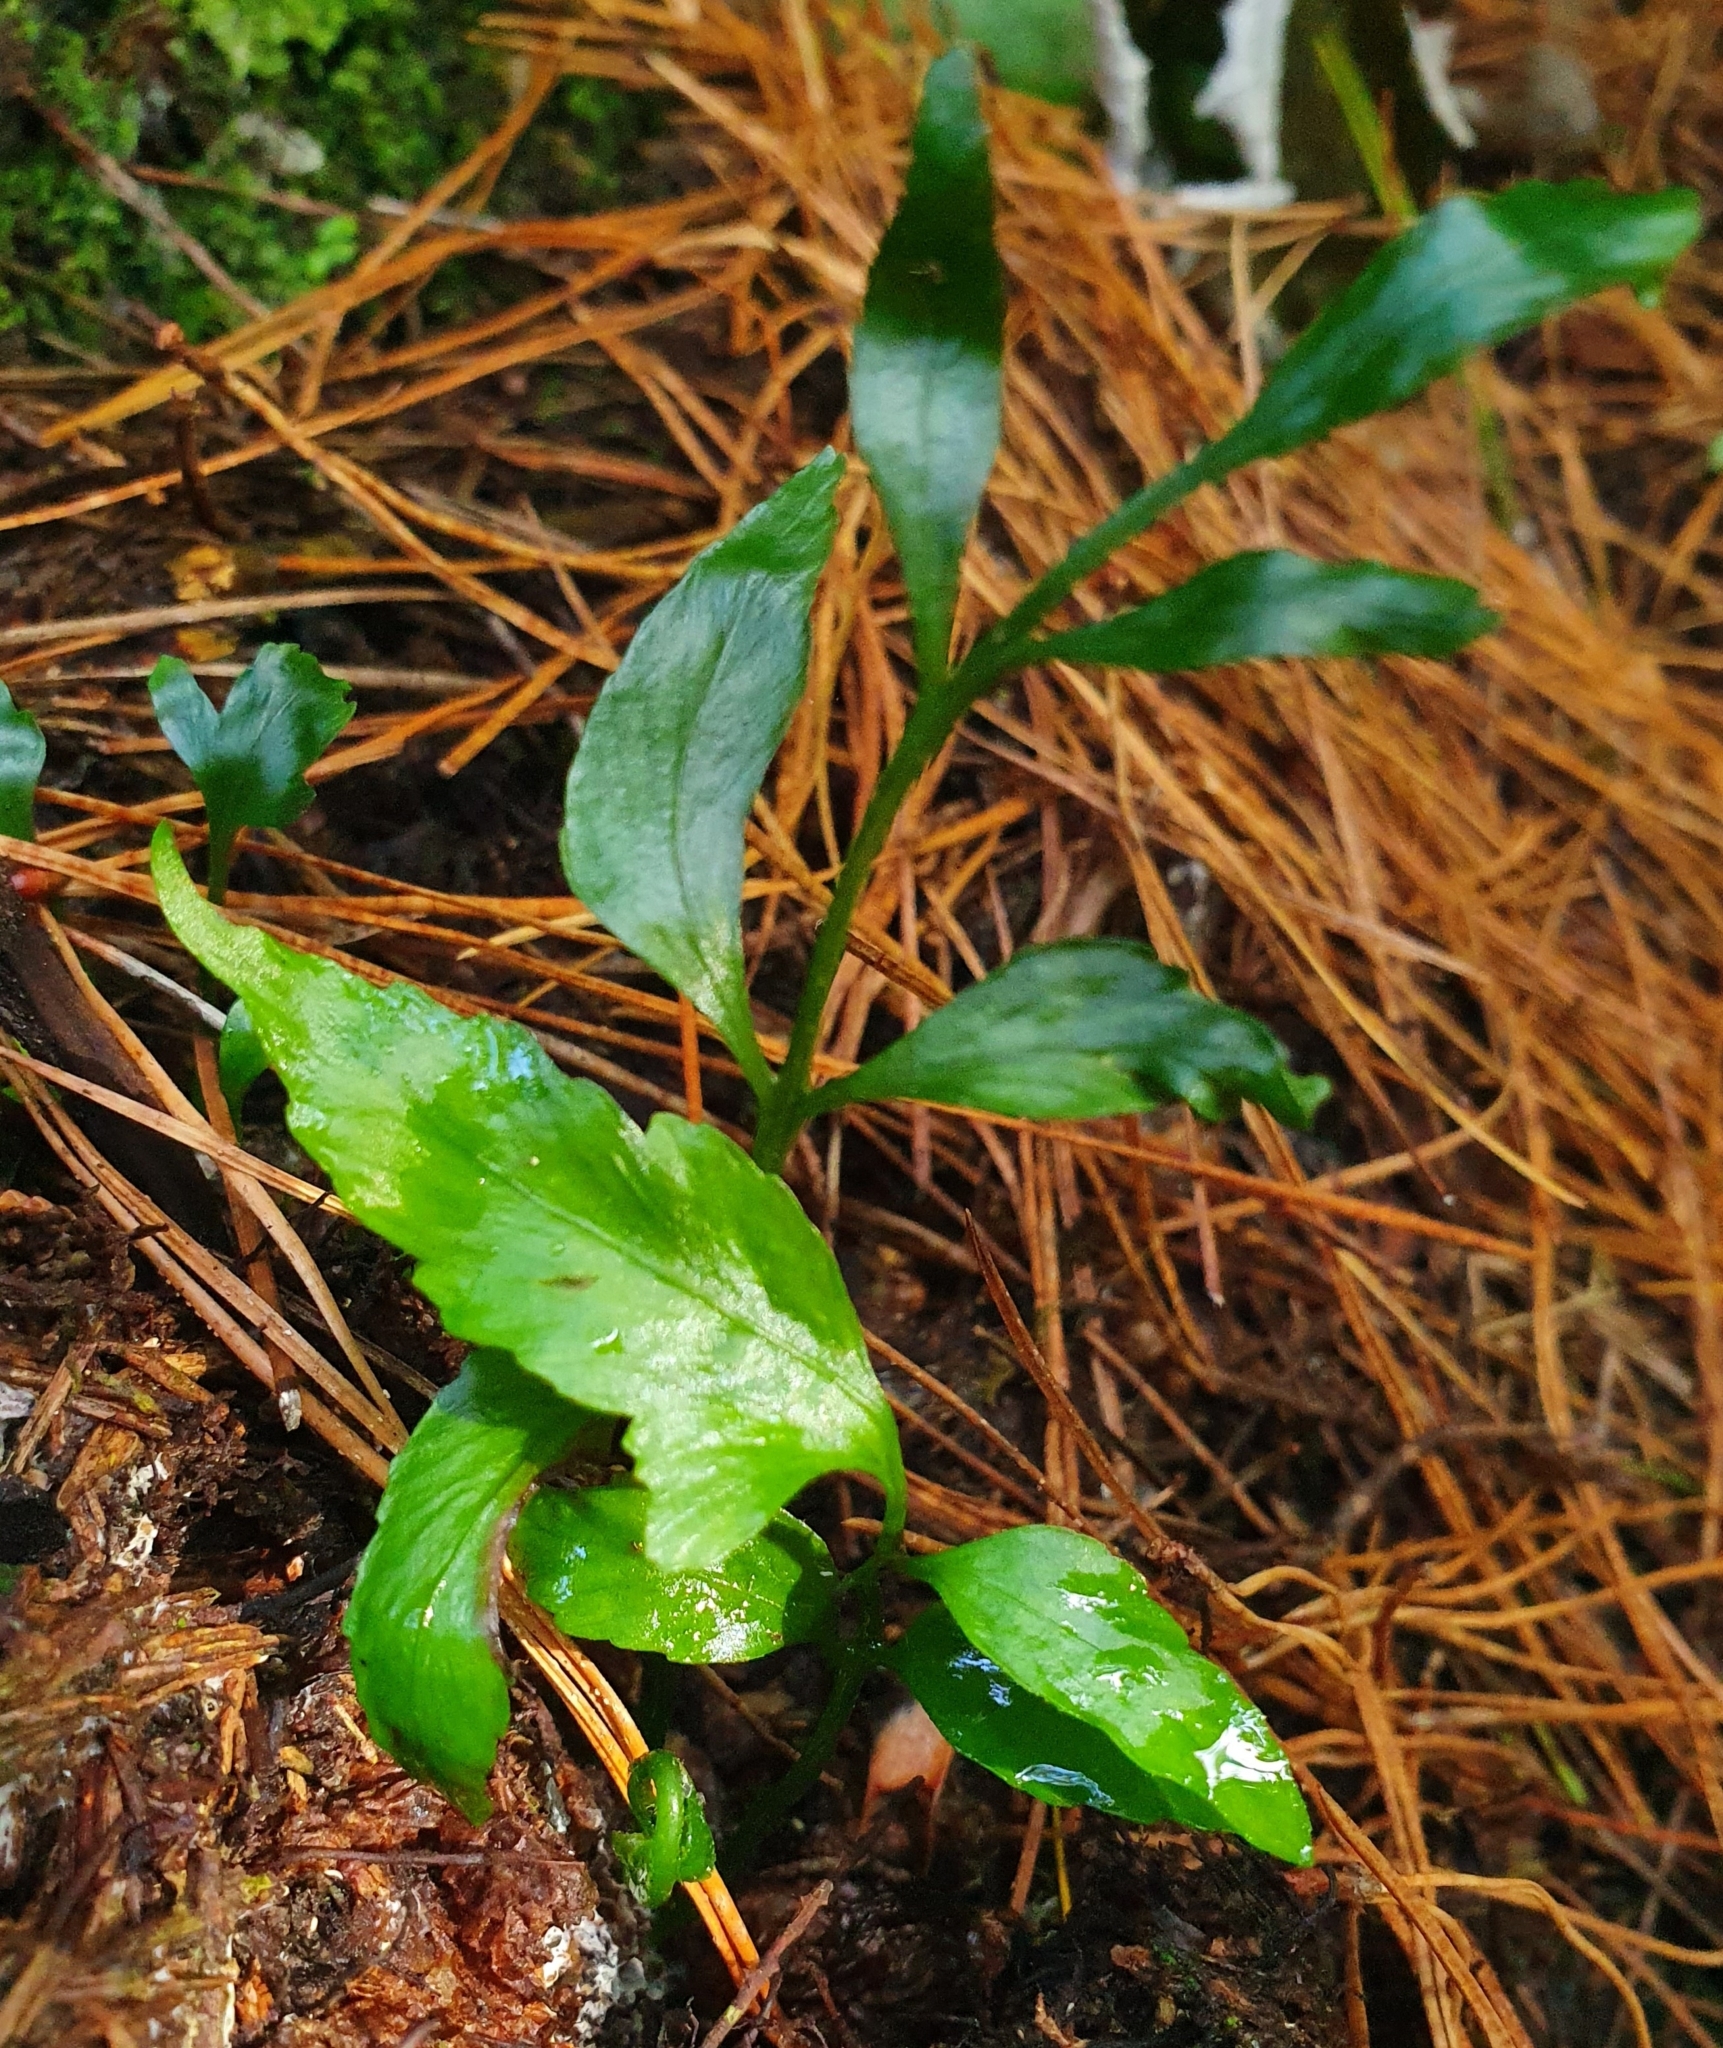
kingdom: Plantae
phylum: Tracheophyta
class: Polypodiopsida
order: Polypodiales
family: Aspleniaceae
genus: Asplenium
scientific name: Asplenium oblongifolium
